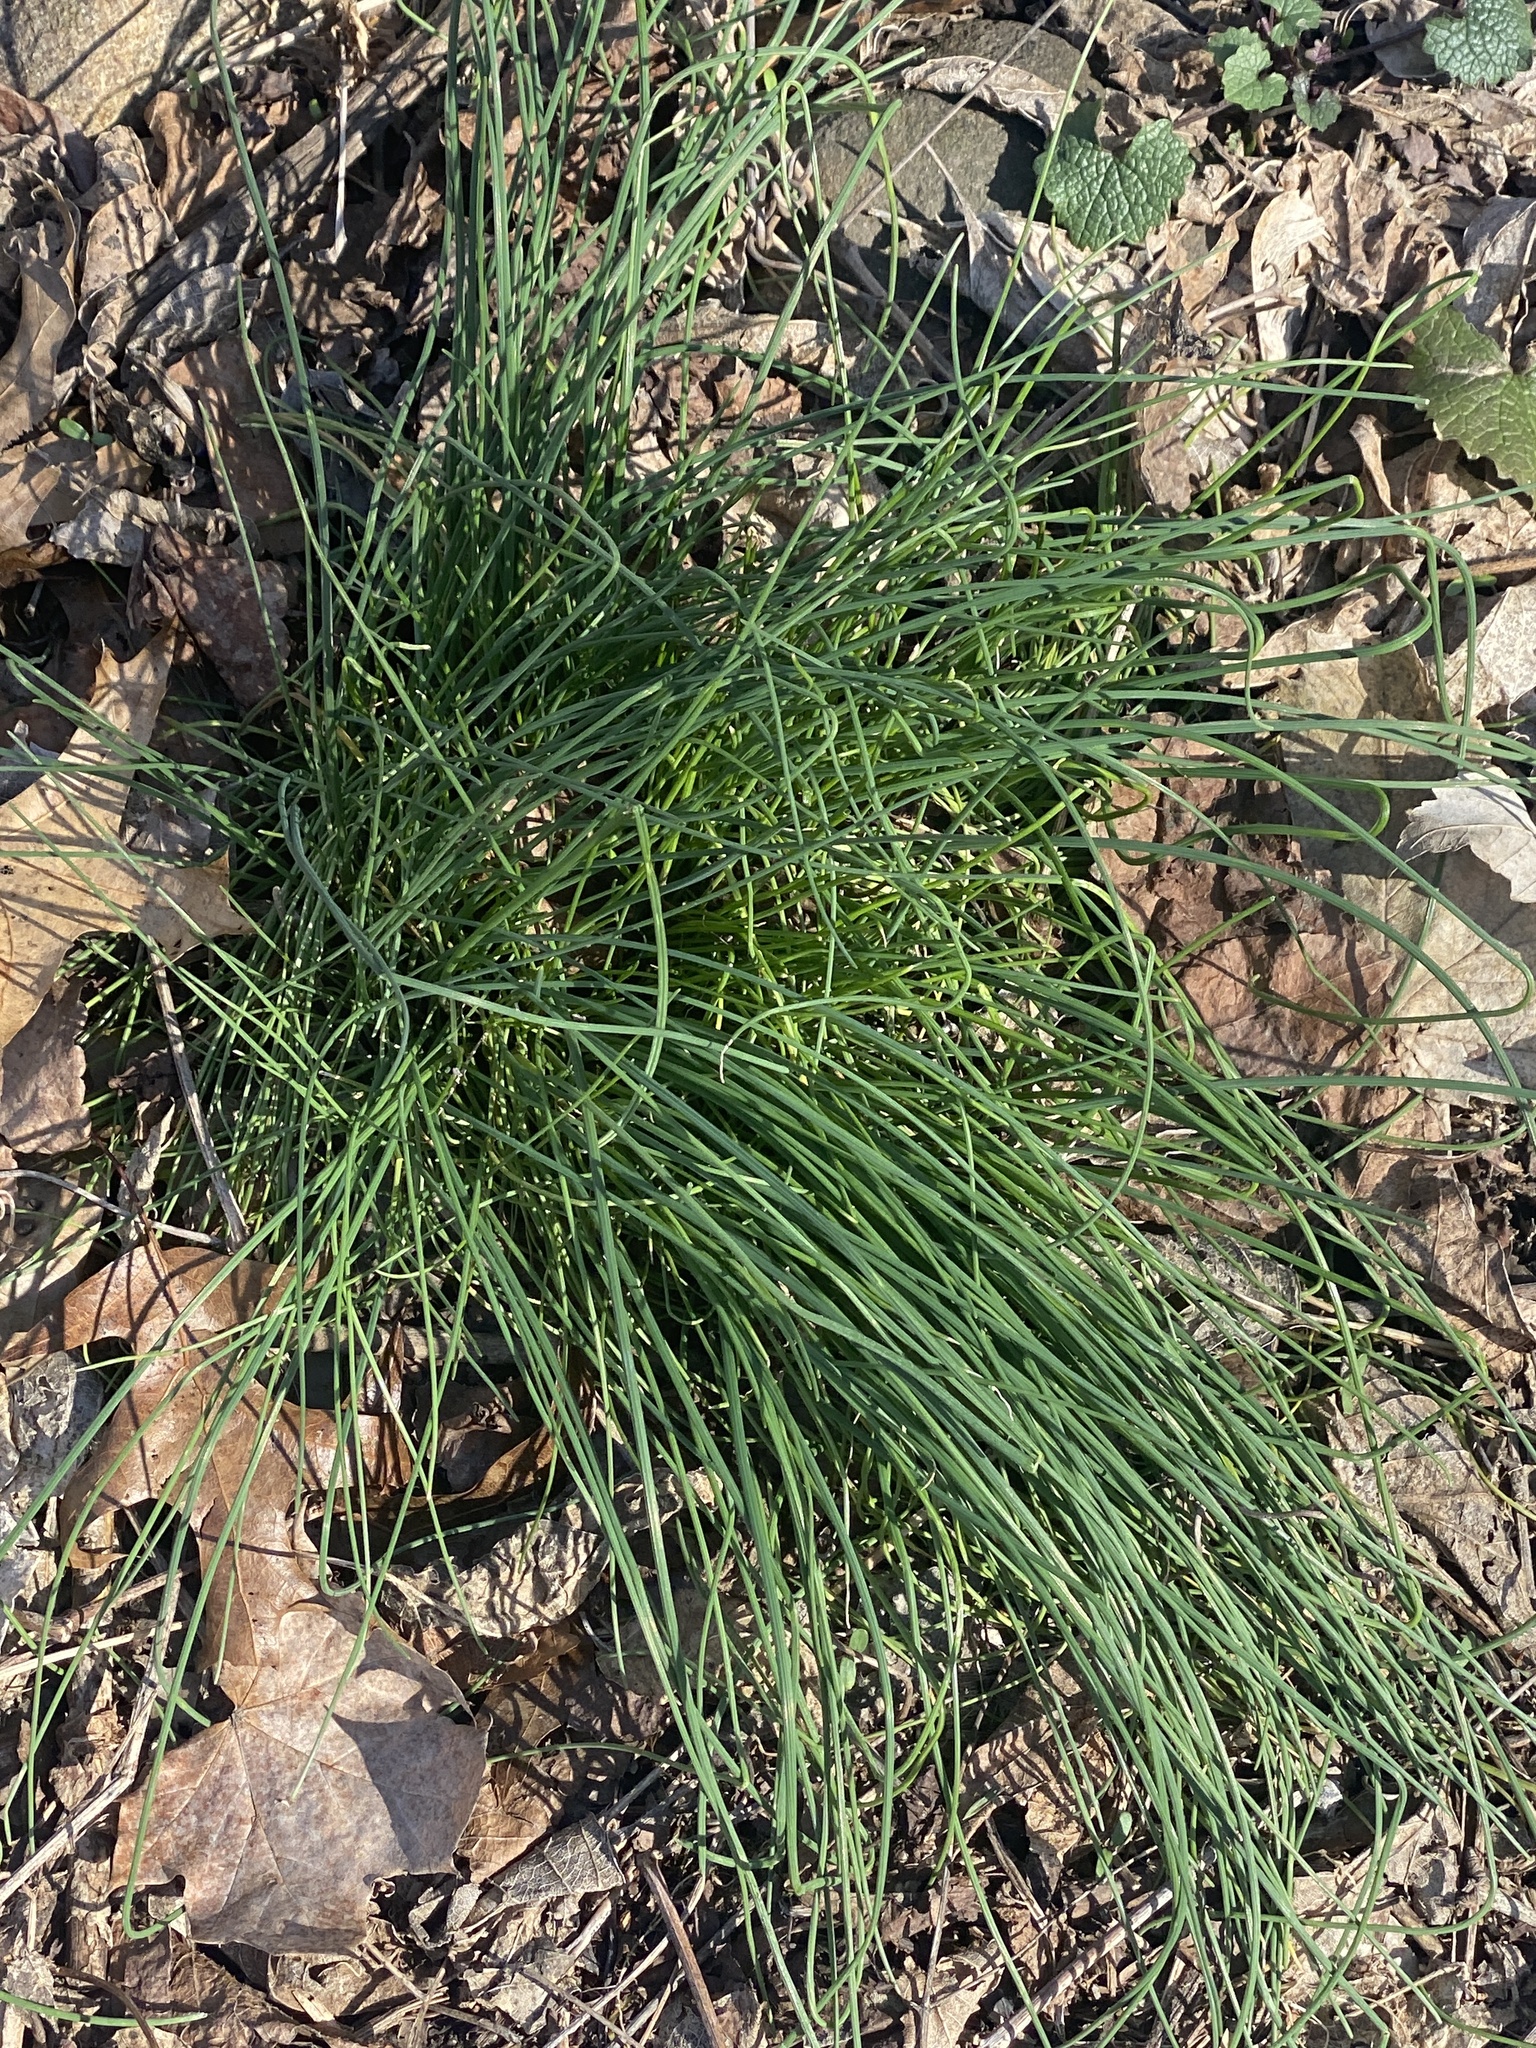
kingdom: Plantae
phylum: Tracheophyta
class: Liliopsida
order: Asparagales
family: Amaryllidaceae
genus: Allium
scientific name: Allium vineale
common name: Crow garlic
